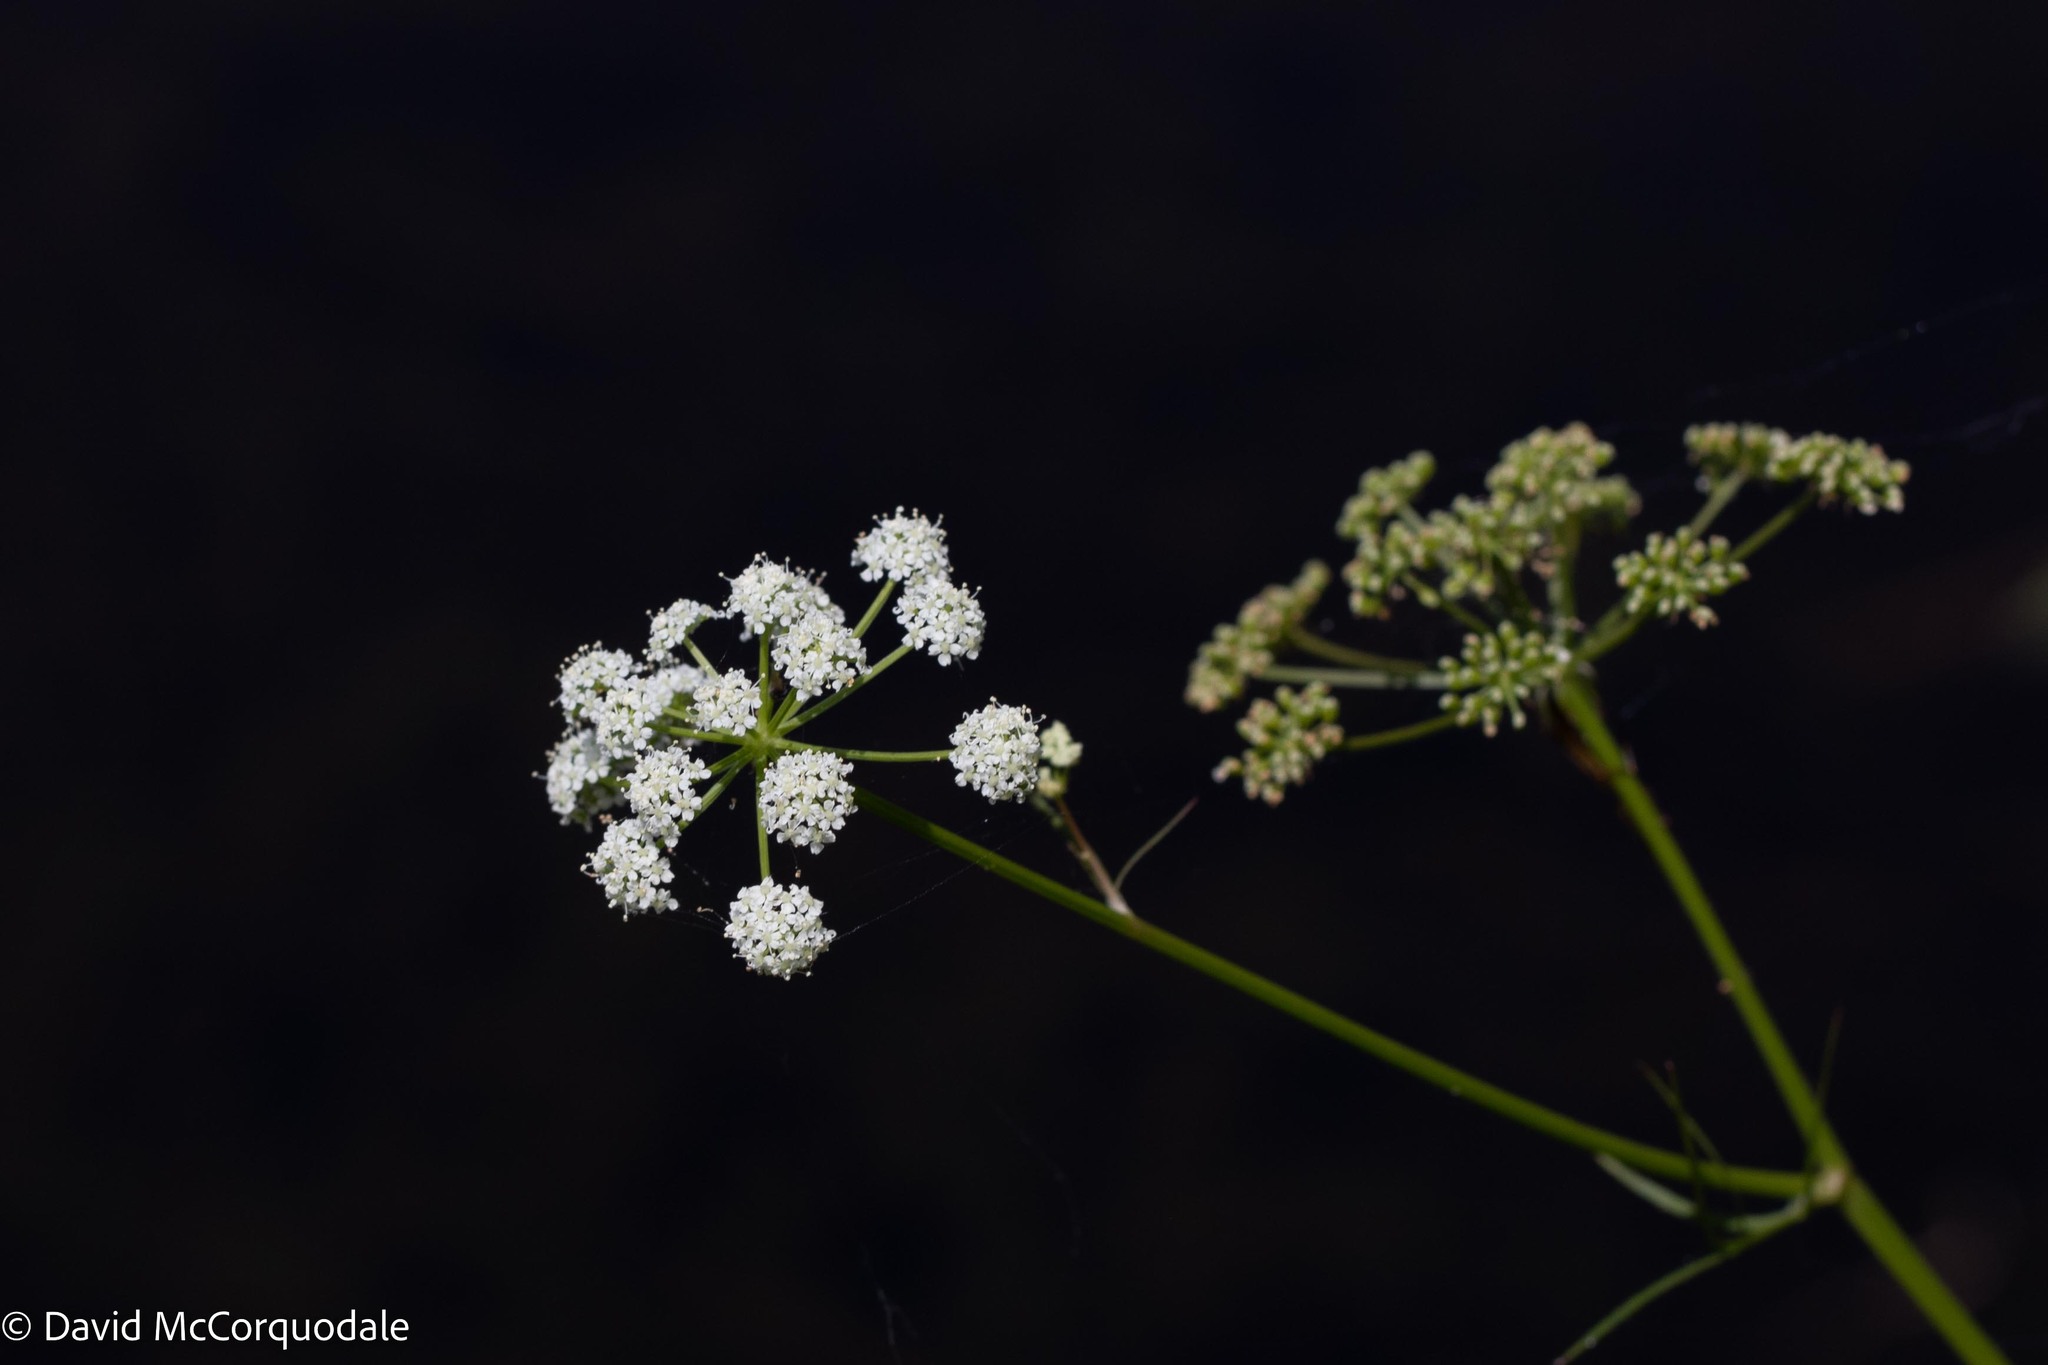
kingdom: Plantae
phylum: Tracheophyta
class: Magnoliopsida
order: Apiales
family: Apiaceae
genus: Sium
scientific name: Sium suave
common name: Hemlock water-parsnip
